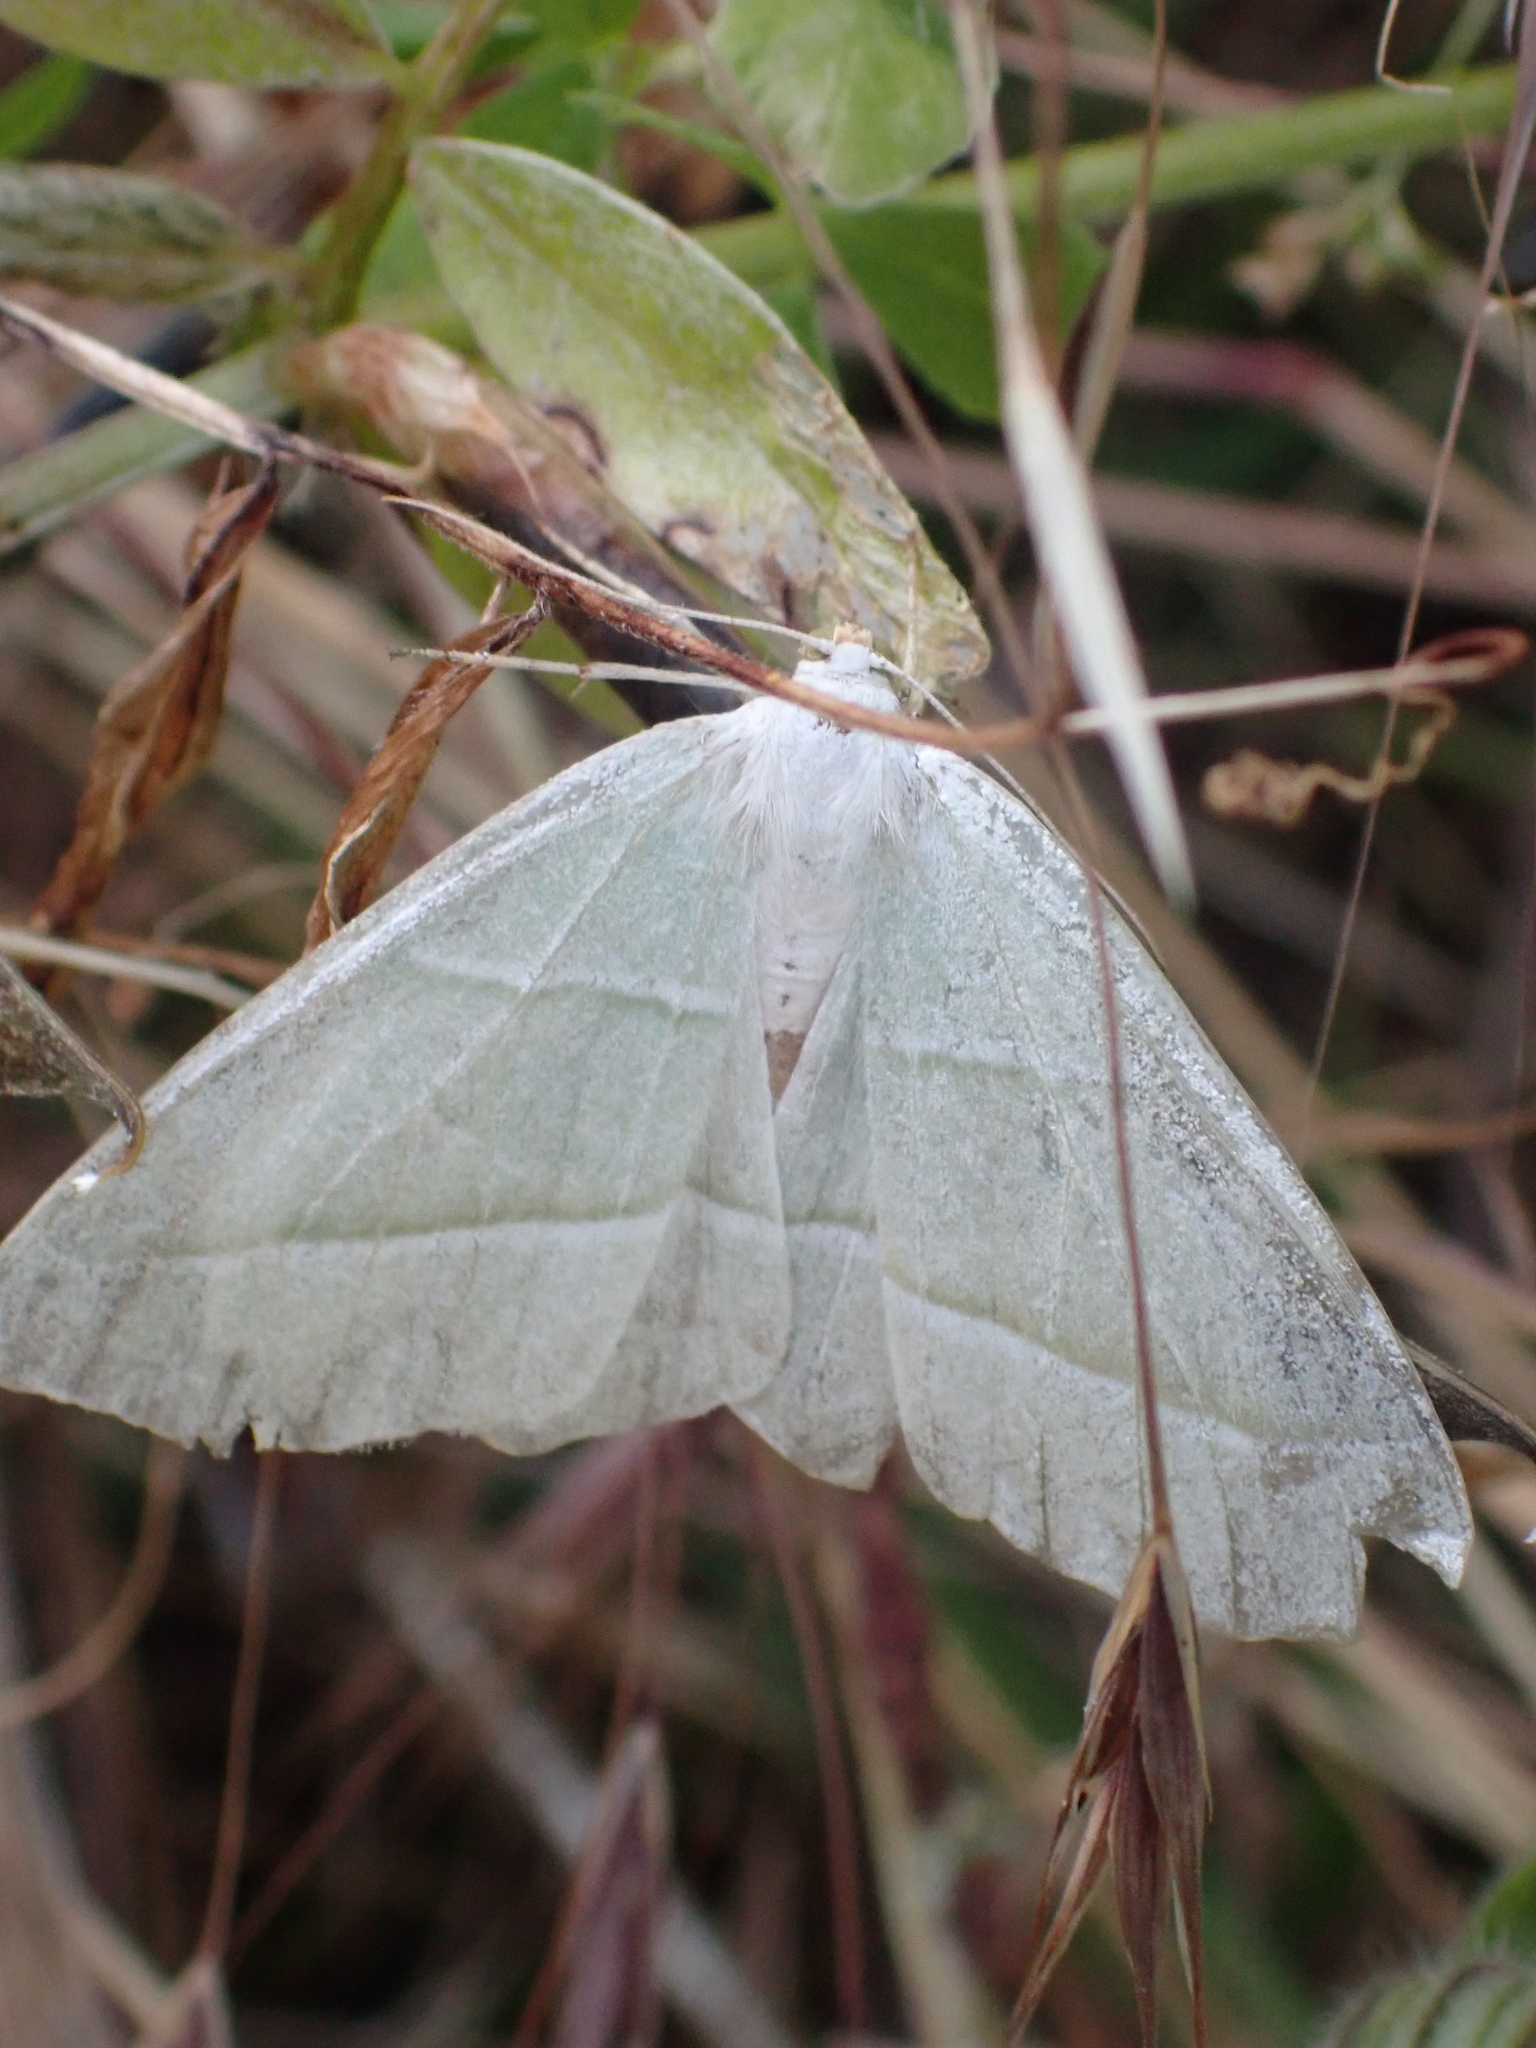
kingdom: Animalia
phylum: Arthropoda
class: Insecta
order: Lepidoptera
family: Geometridae
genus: Campaea
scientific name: Campaea margaritaria
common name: Light emerald
